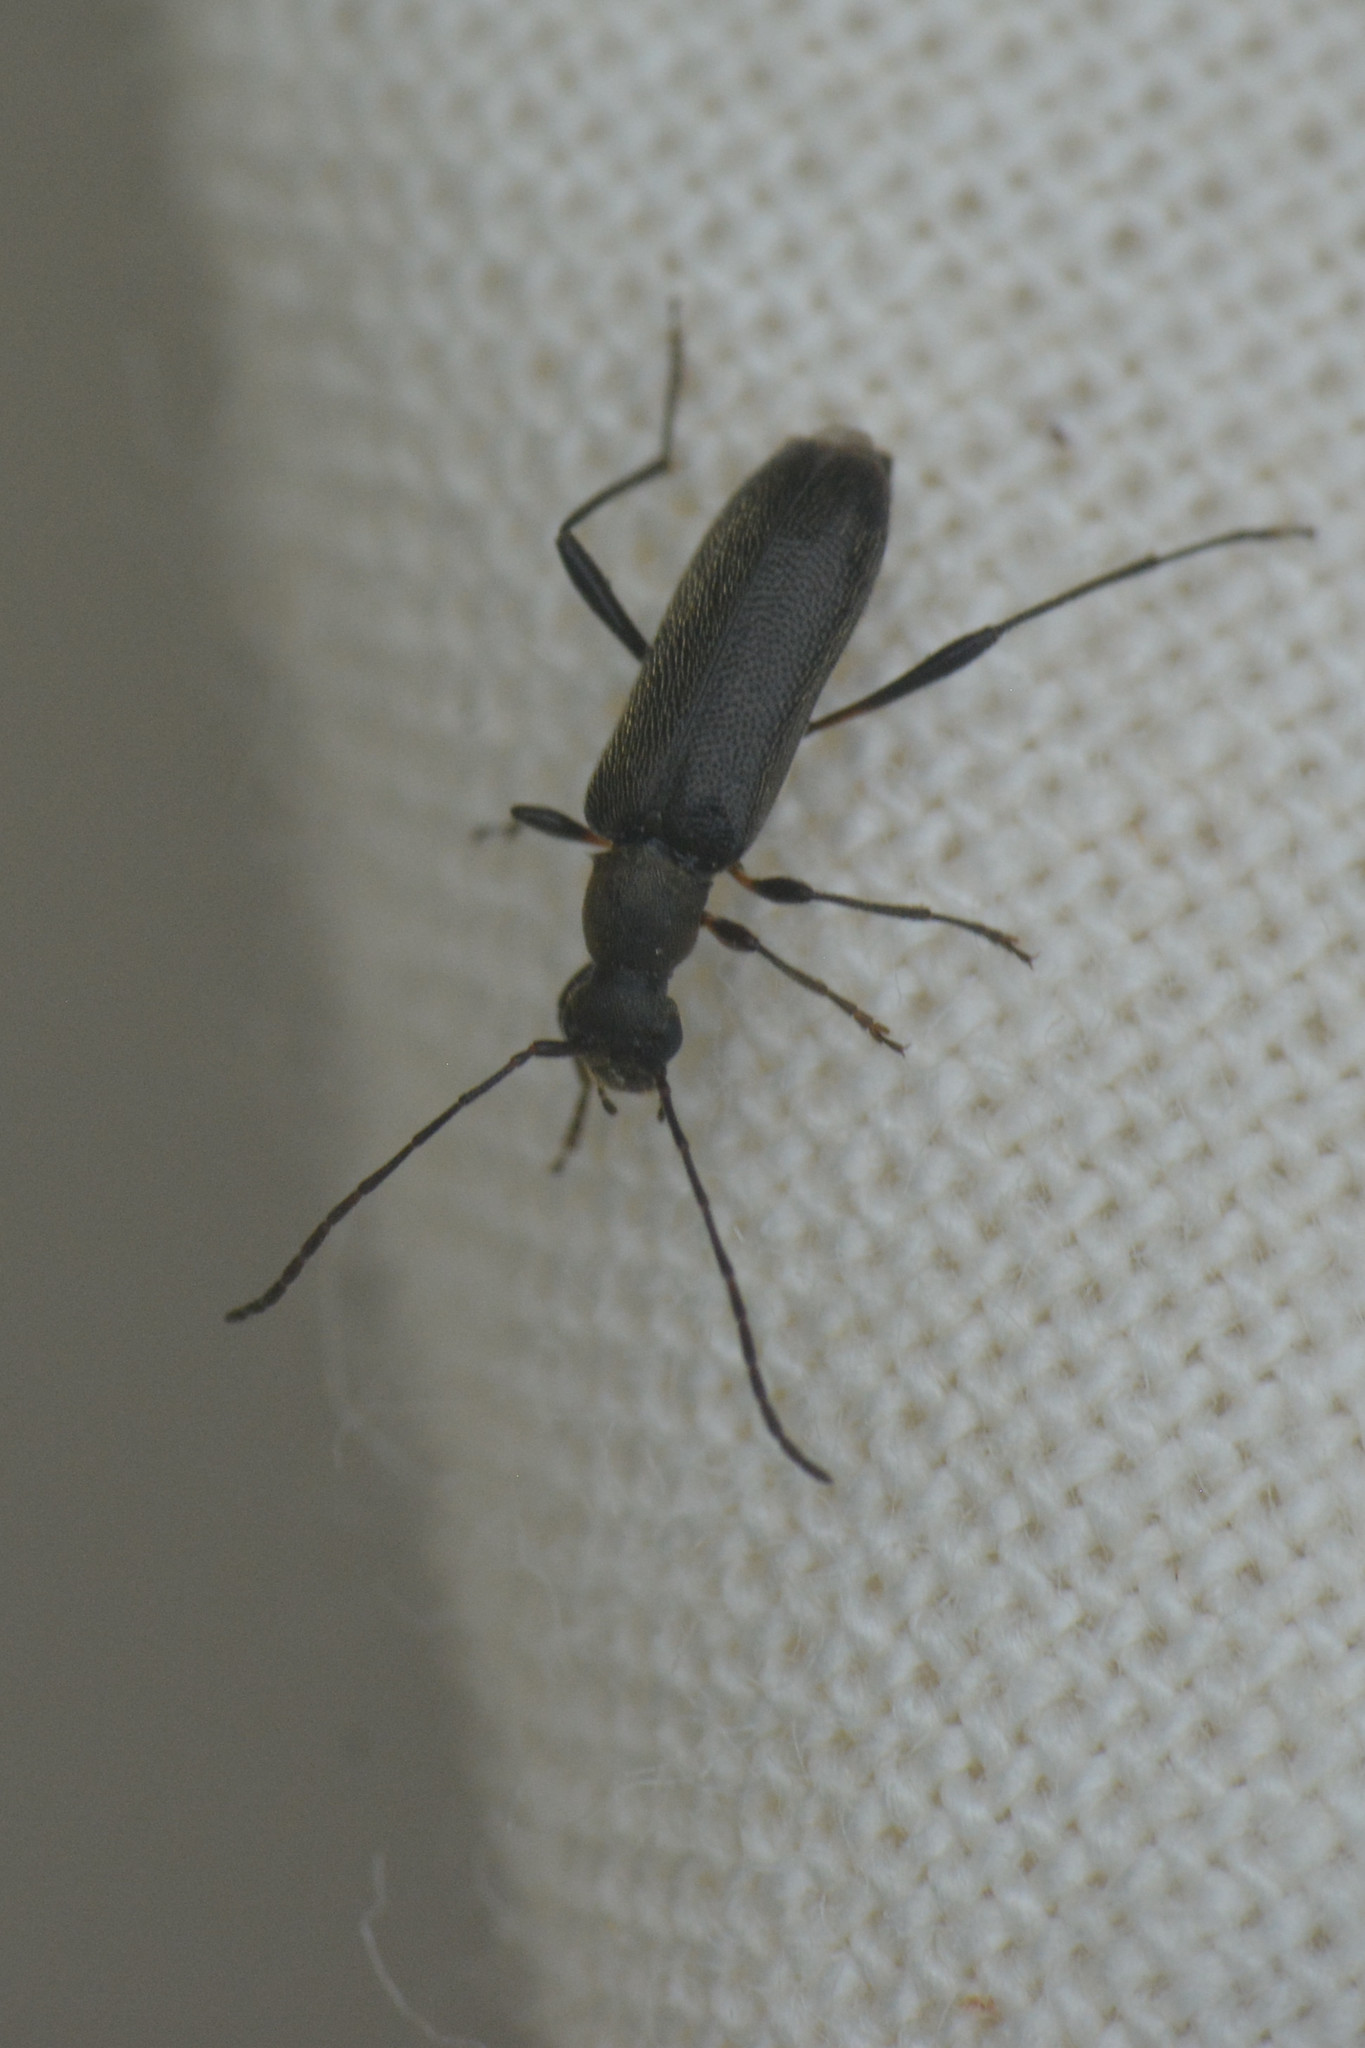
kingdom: Animalia
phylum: Arthropoda
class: Insecta
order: Coleoptera
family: Cerambycidae
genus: Grammoptera
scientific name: Grammoptera ruficornis
